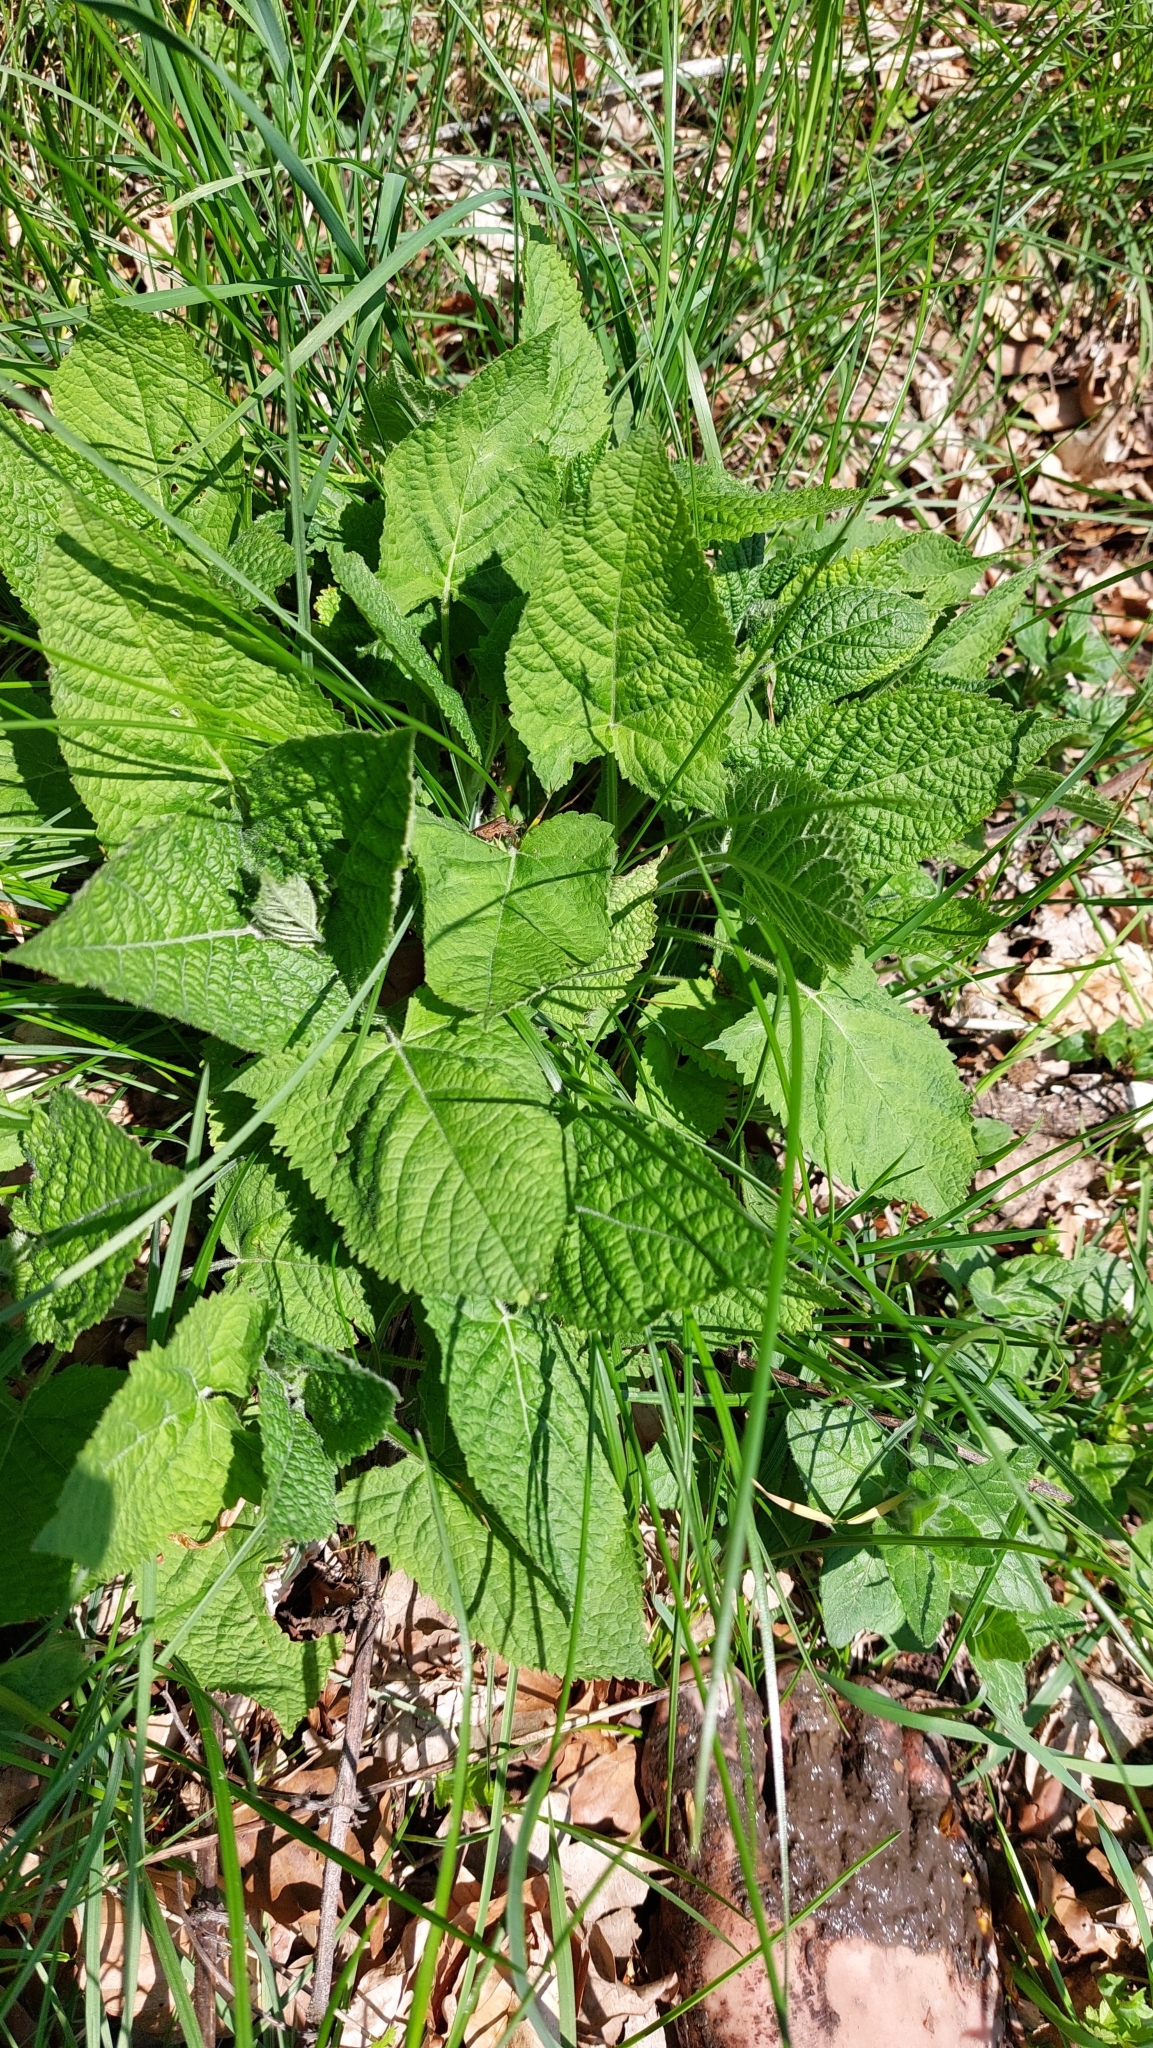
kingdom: Plantae
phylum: Tracheophyta
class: Magnoliopsida
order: Lamiales
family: Lamiaceae
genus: Salvia
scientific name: Salvia glutinosa
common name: Sticky clary
